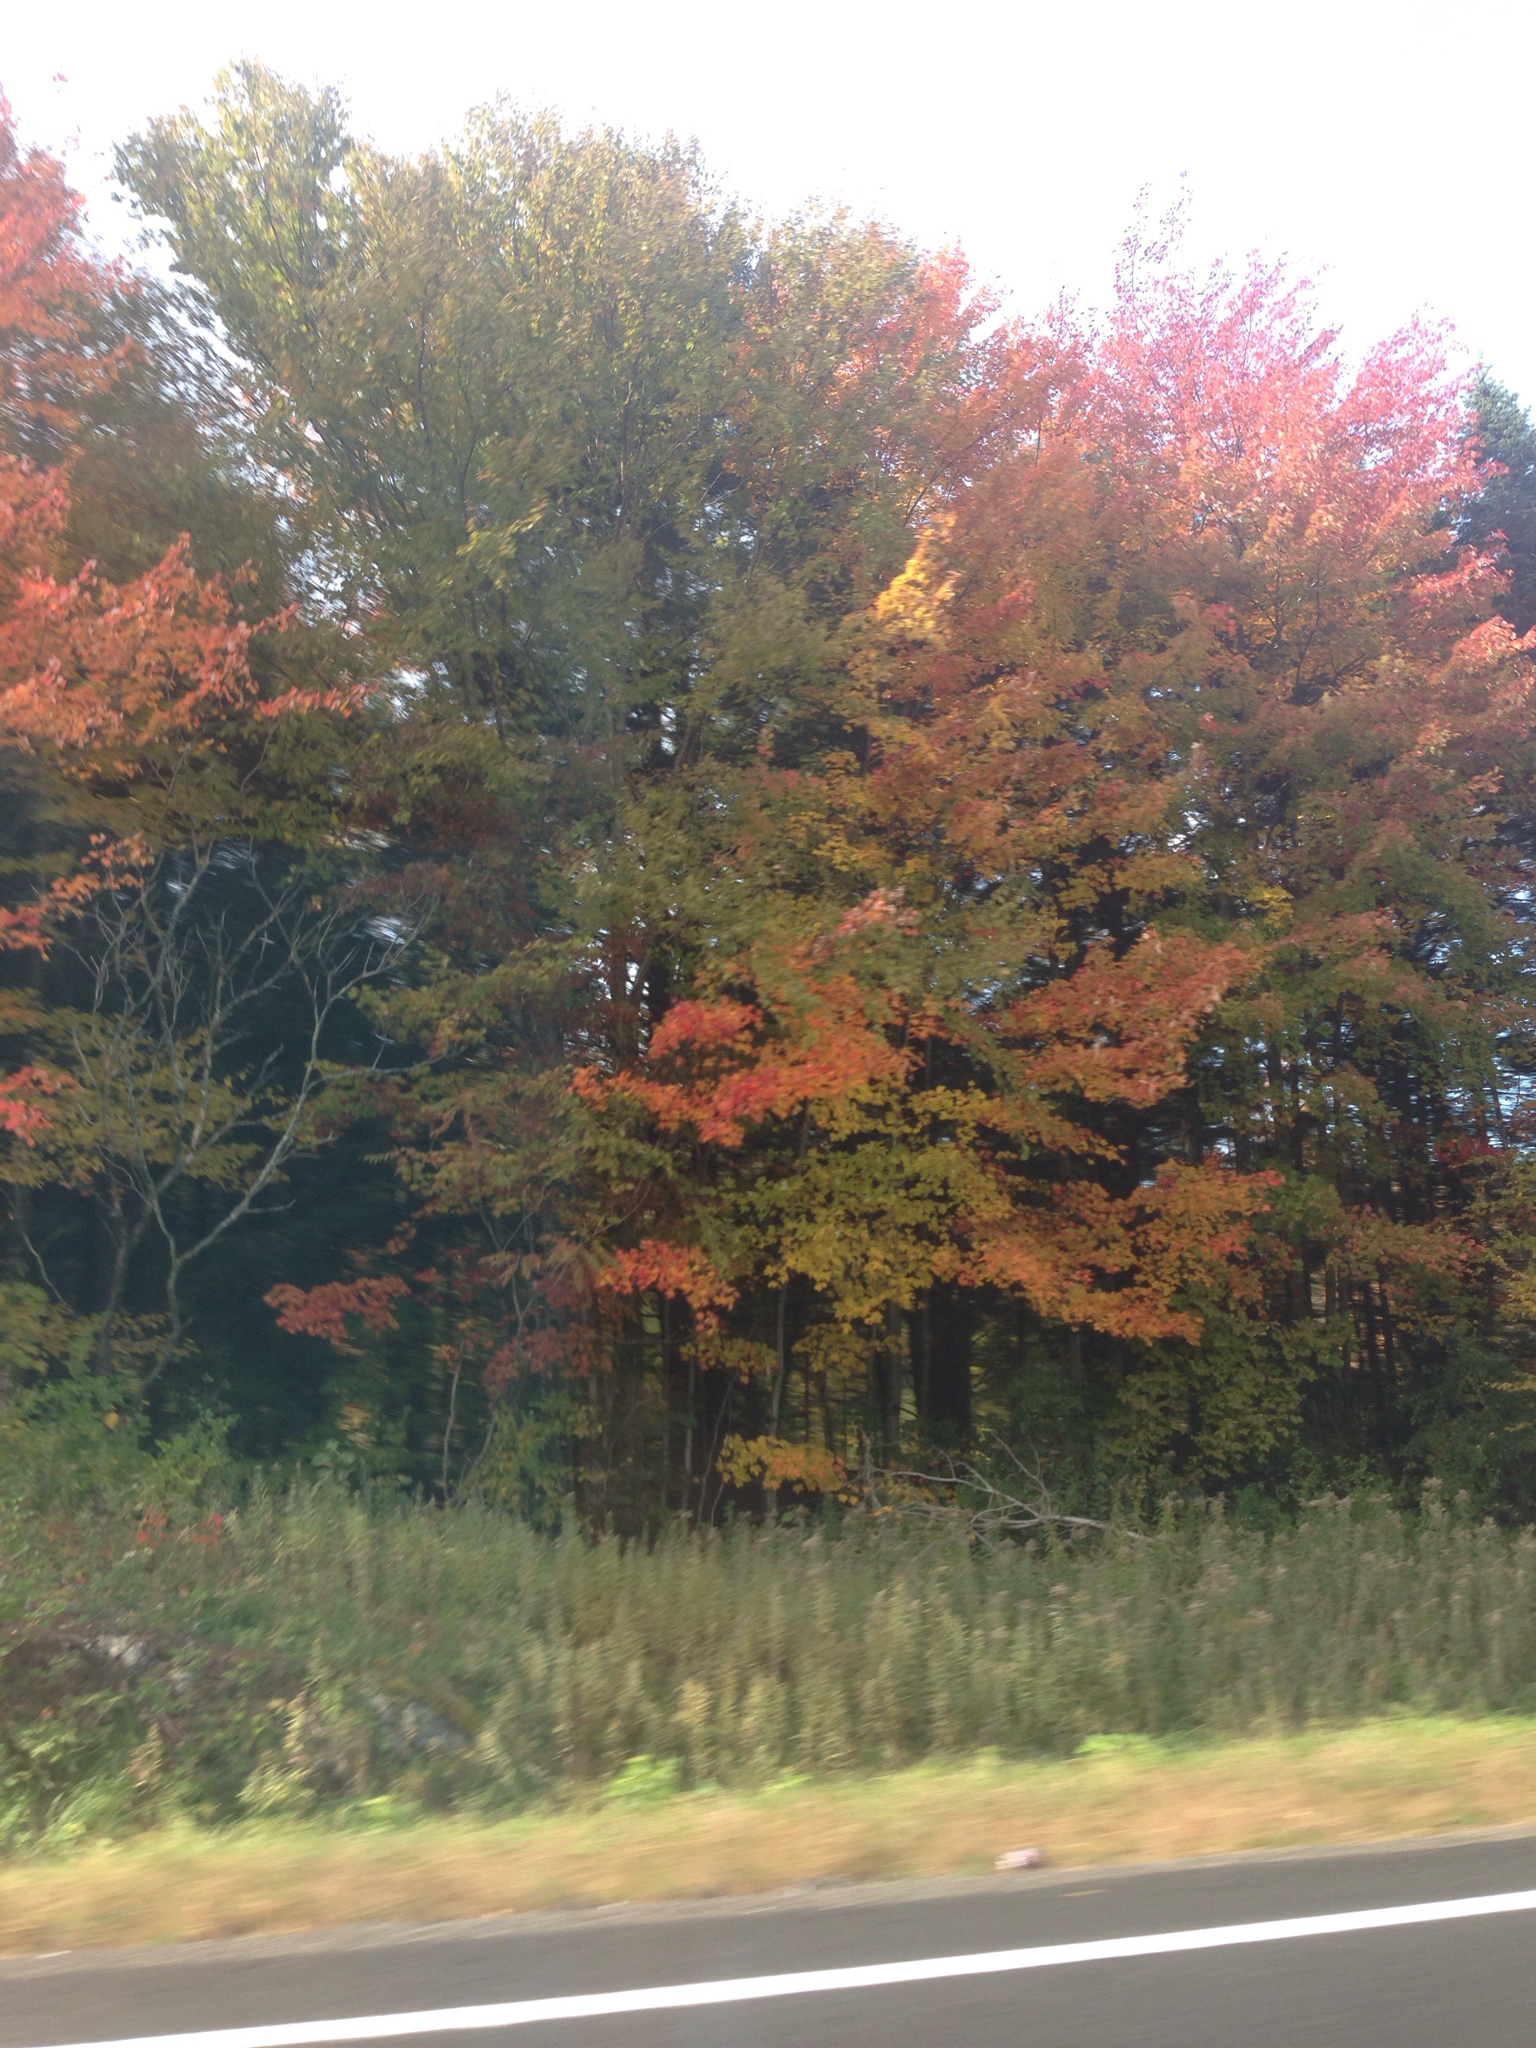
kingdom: Plantae
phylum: Tracheophyta
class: Magnoliopsida
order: Sapindales
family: Sapindaceae
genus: Acer
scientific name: Acer rubrum
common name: Red maple
